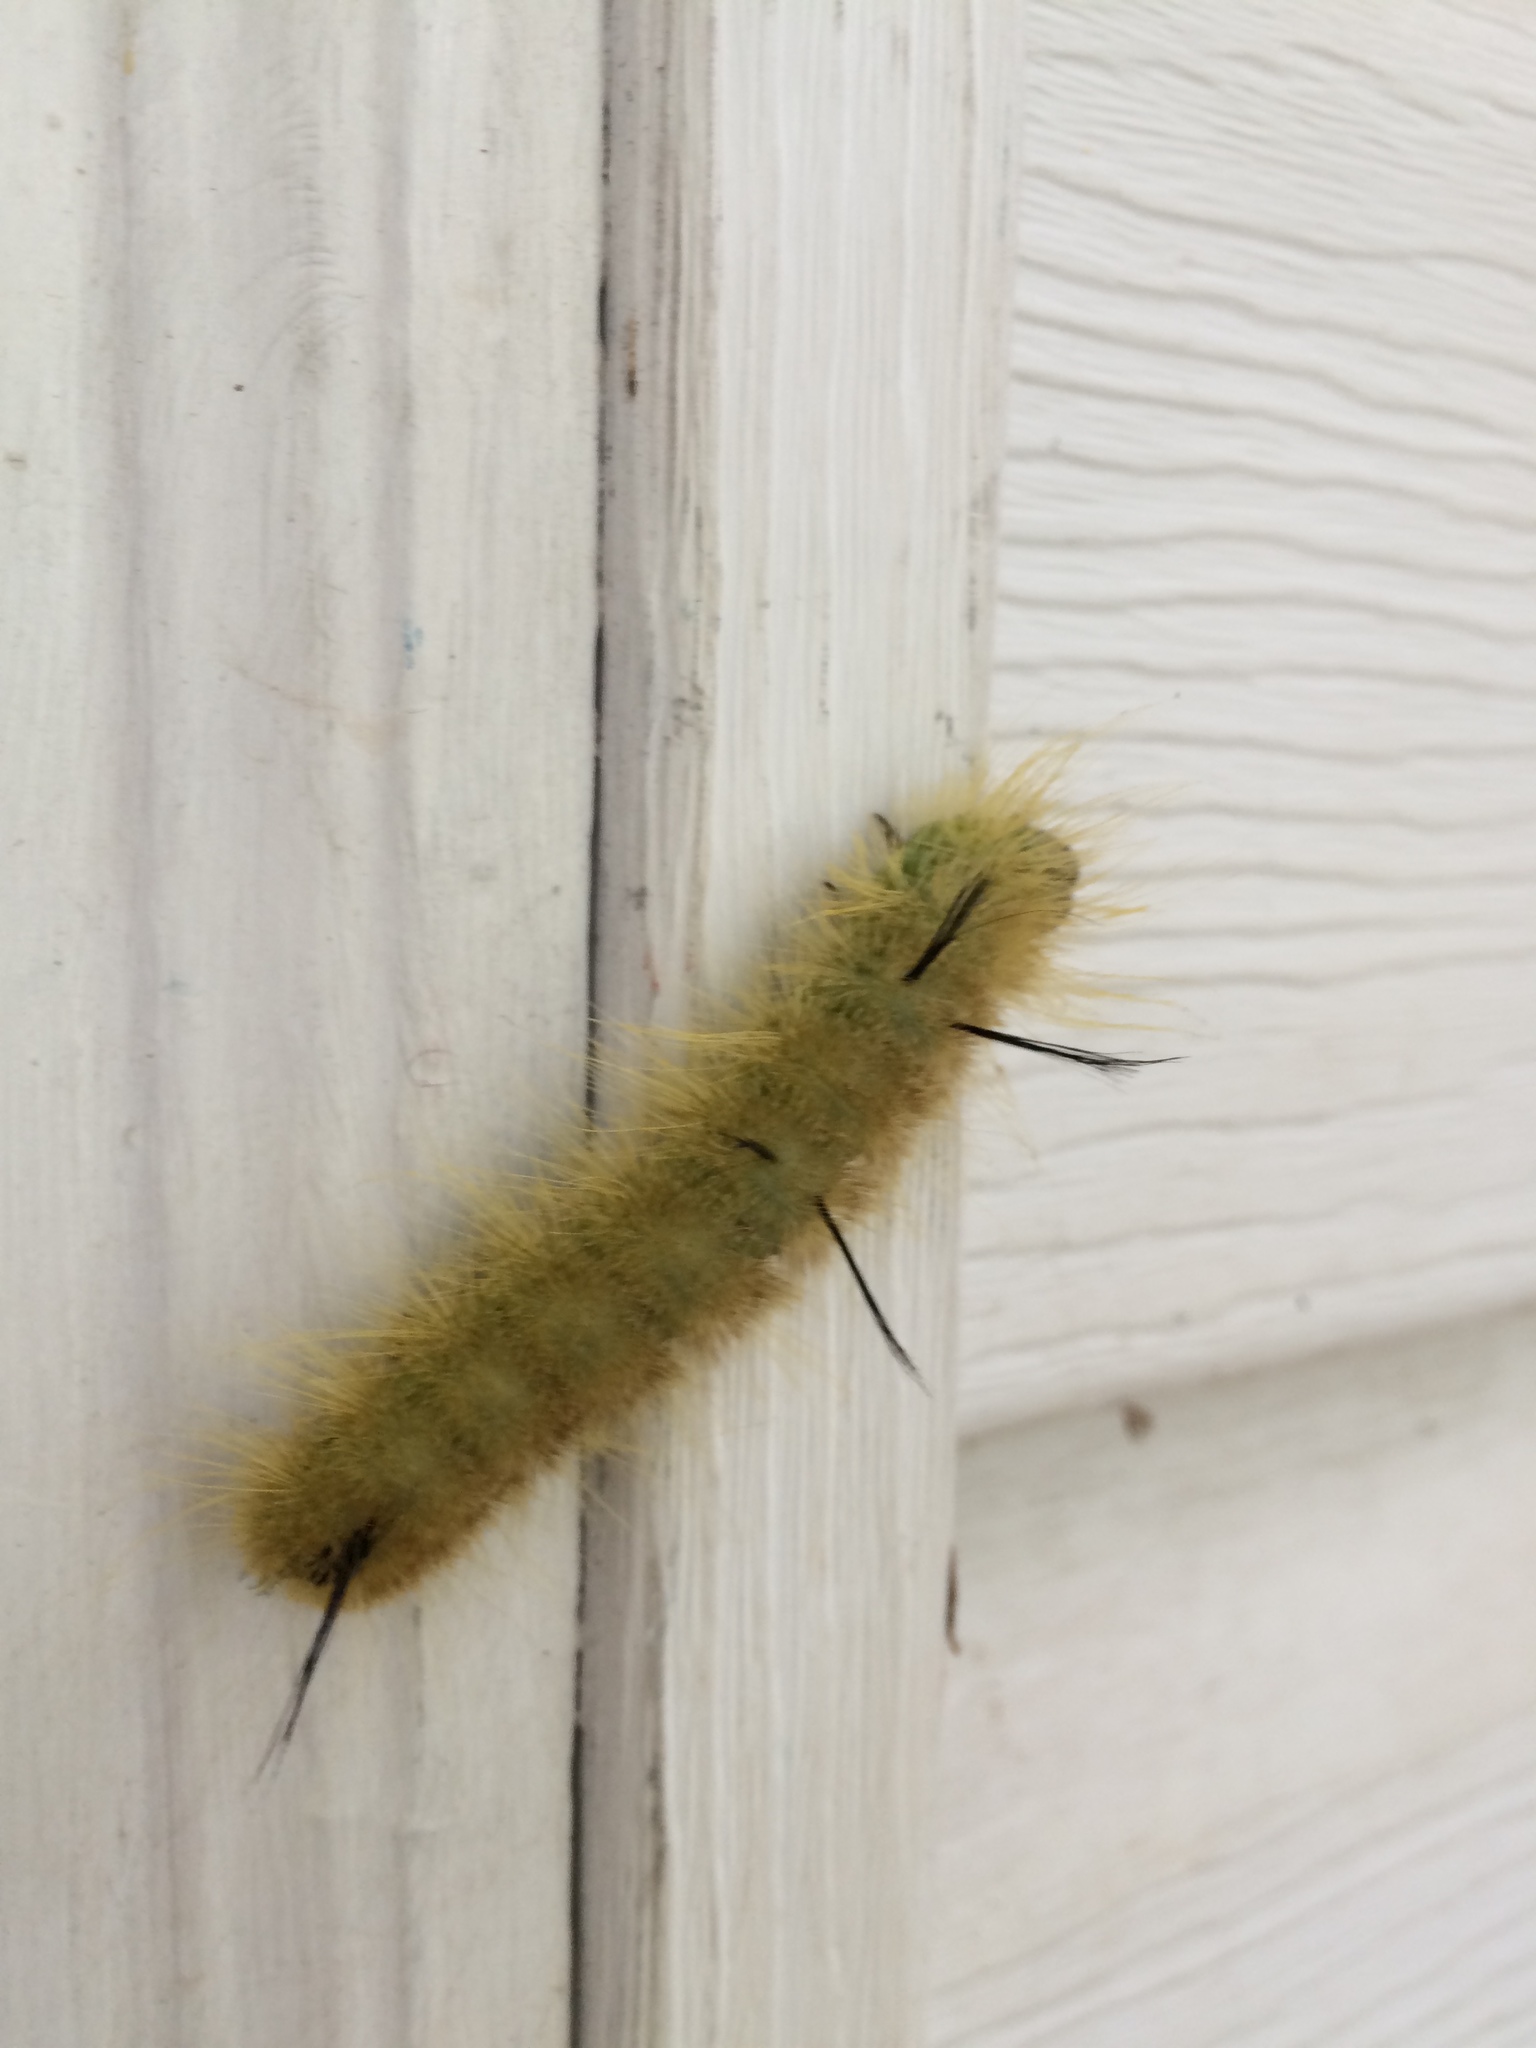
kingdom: Animalia
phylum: Arthropoda
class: Insecta
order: Lepidoptera
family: Noctuidae
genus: Acronicta
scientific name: Acronicta americana
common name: American dagger
